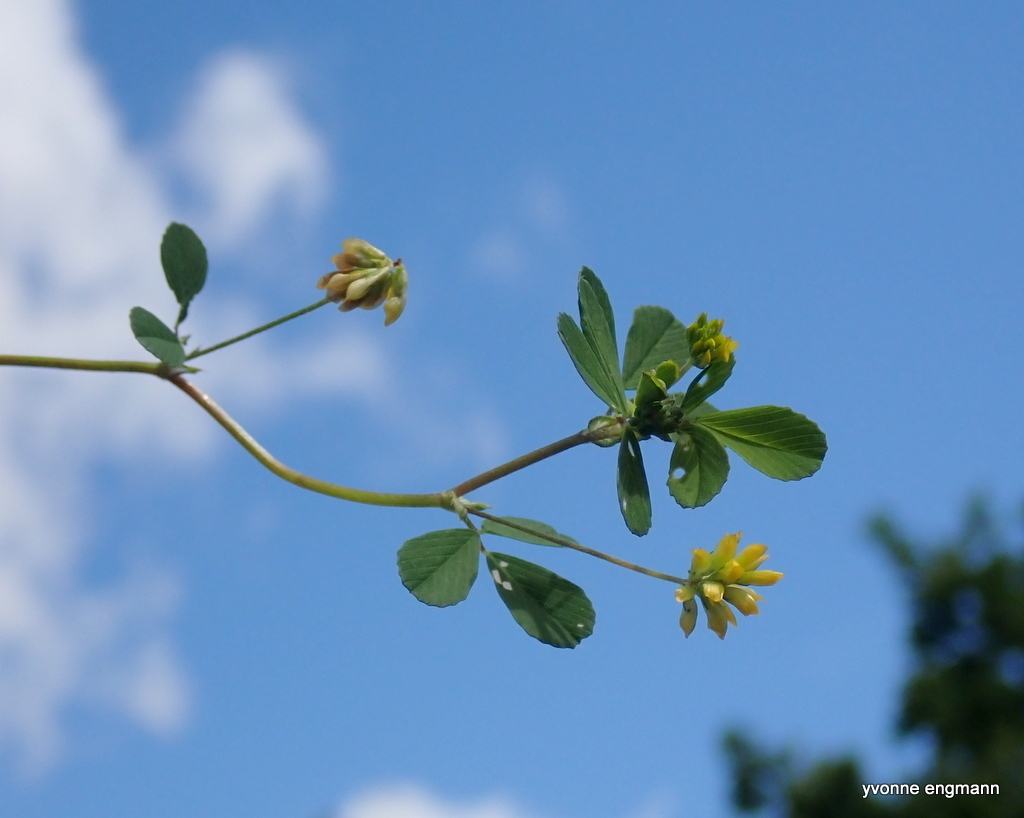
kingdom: Plantae
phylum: Tracheophyta
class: Magnoliopsida
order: Fabales
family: Fabaceae
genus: Trifolium
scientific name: Trifolium dubium
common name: Suckling clover
